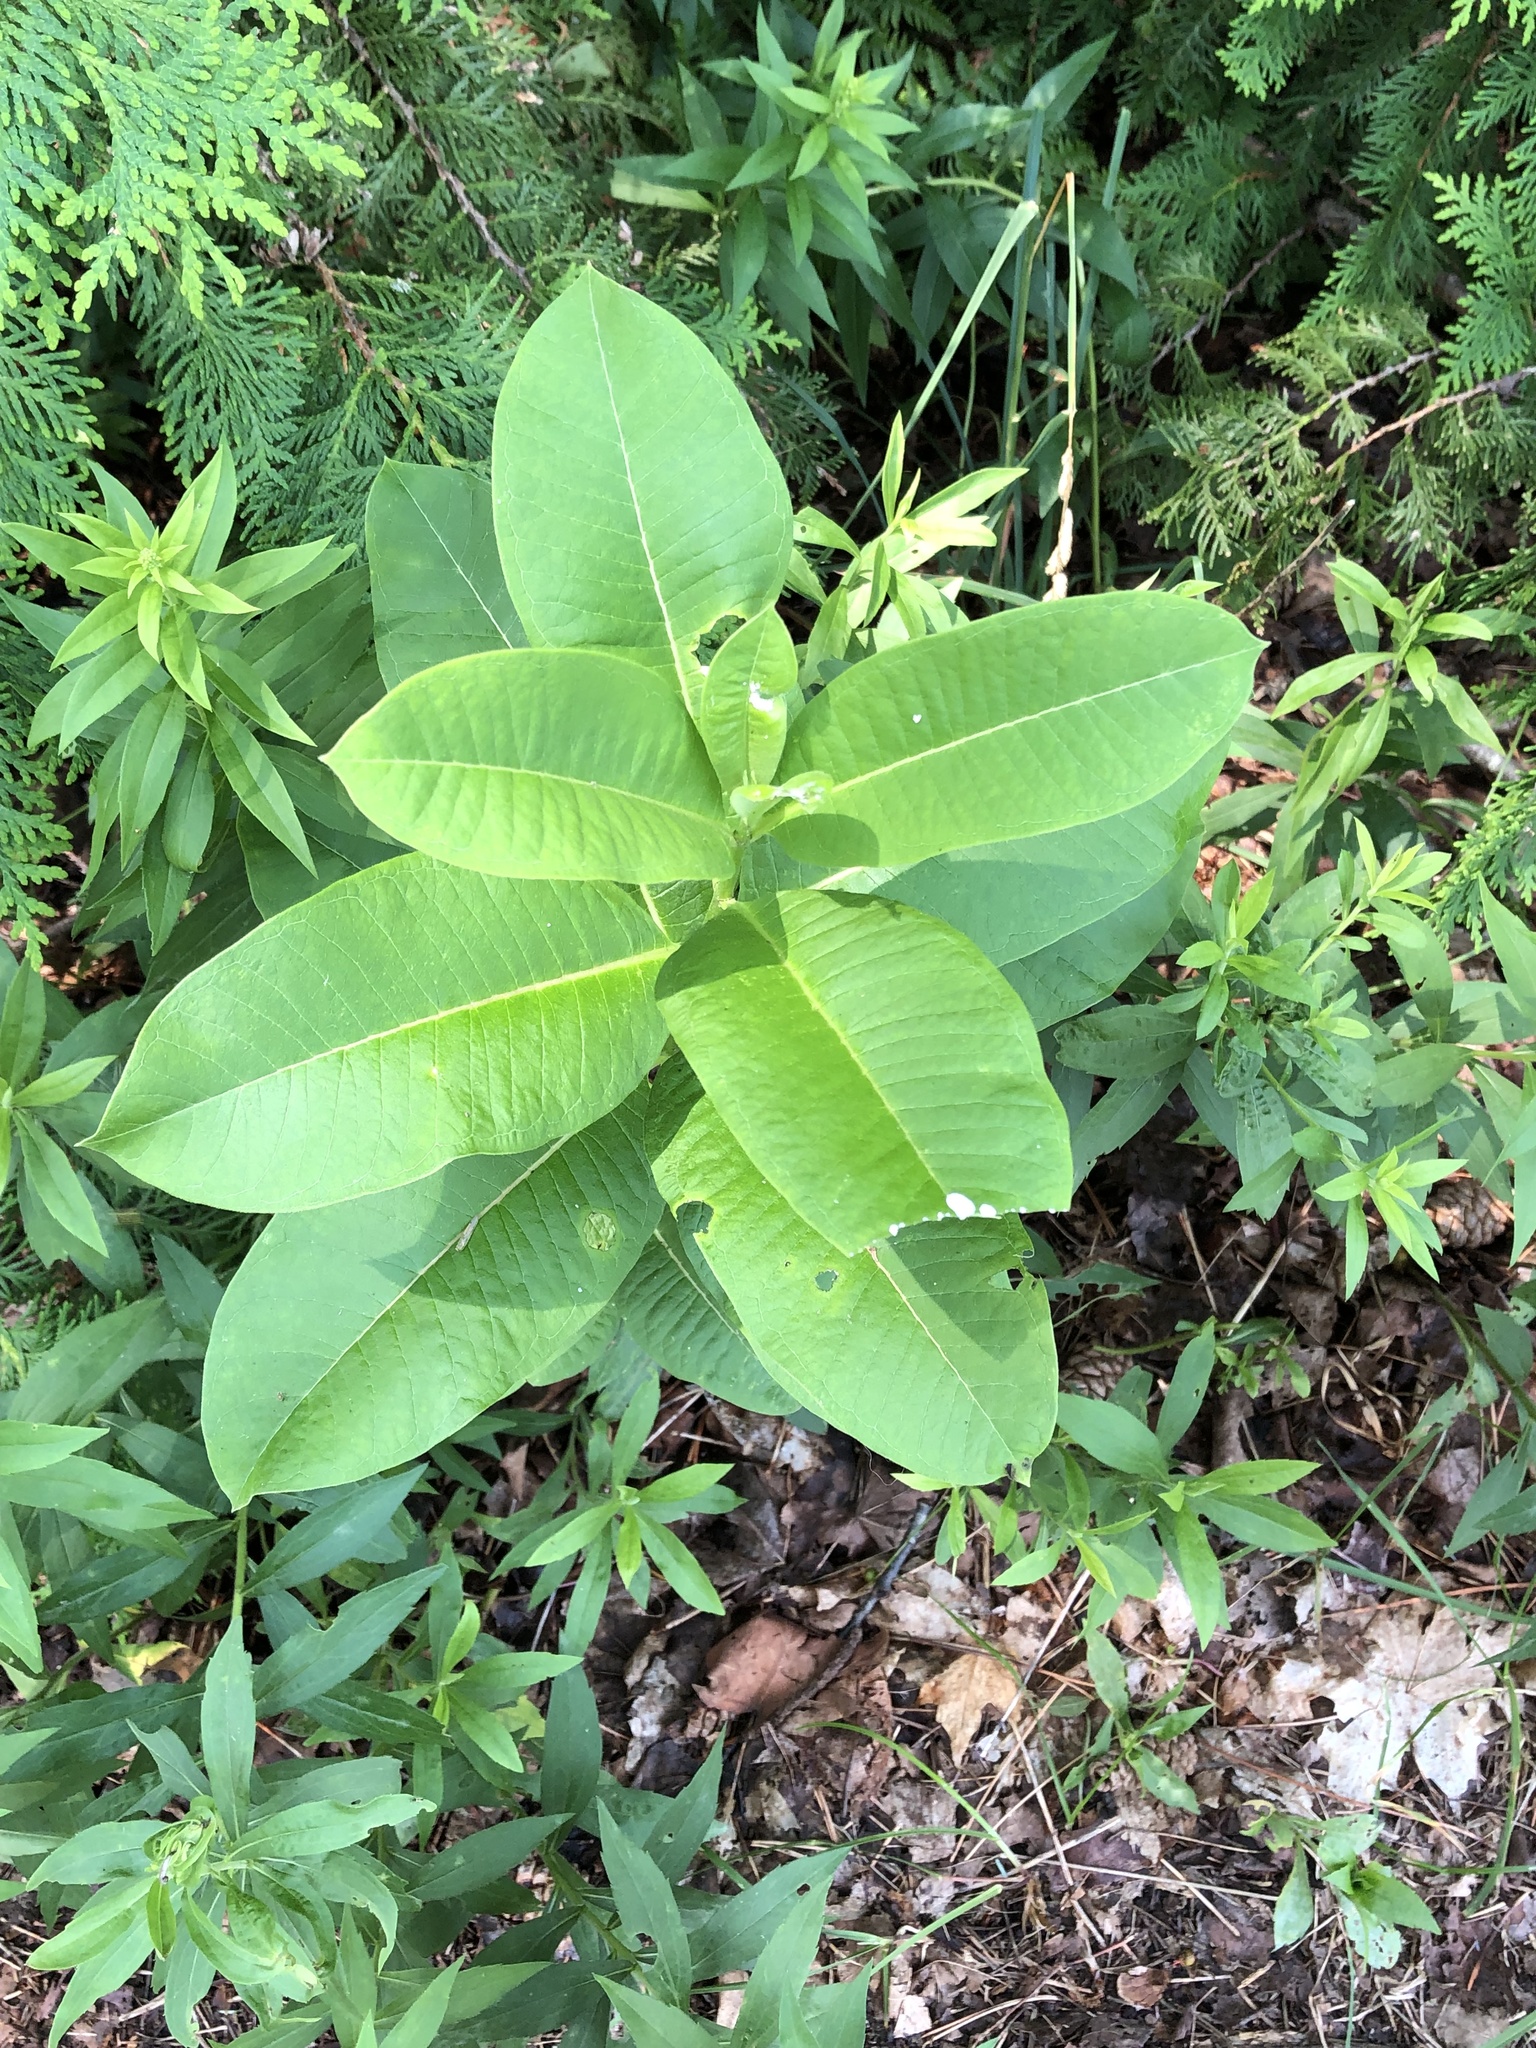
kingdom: Plantae
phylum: Tracheophyta
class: Magnoliopsida
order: Gentianales
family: Apocynaceae
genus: Asclepias
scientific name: Asclepias syriaca
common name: Common milkweed
